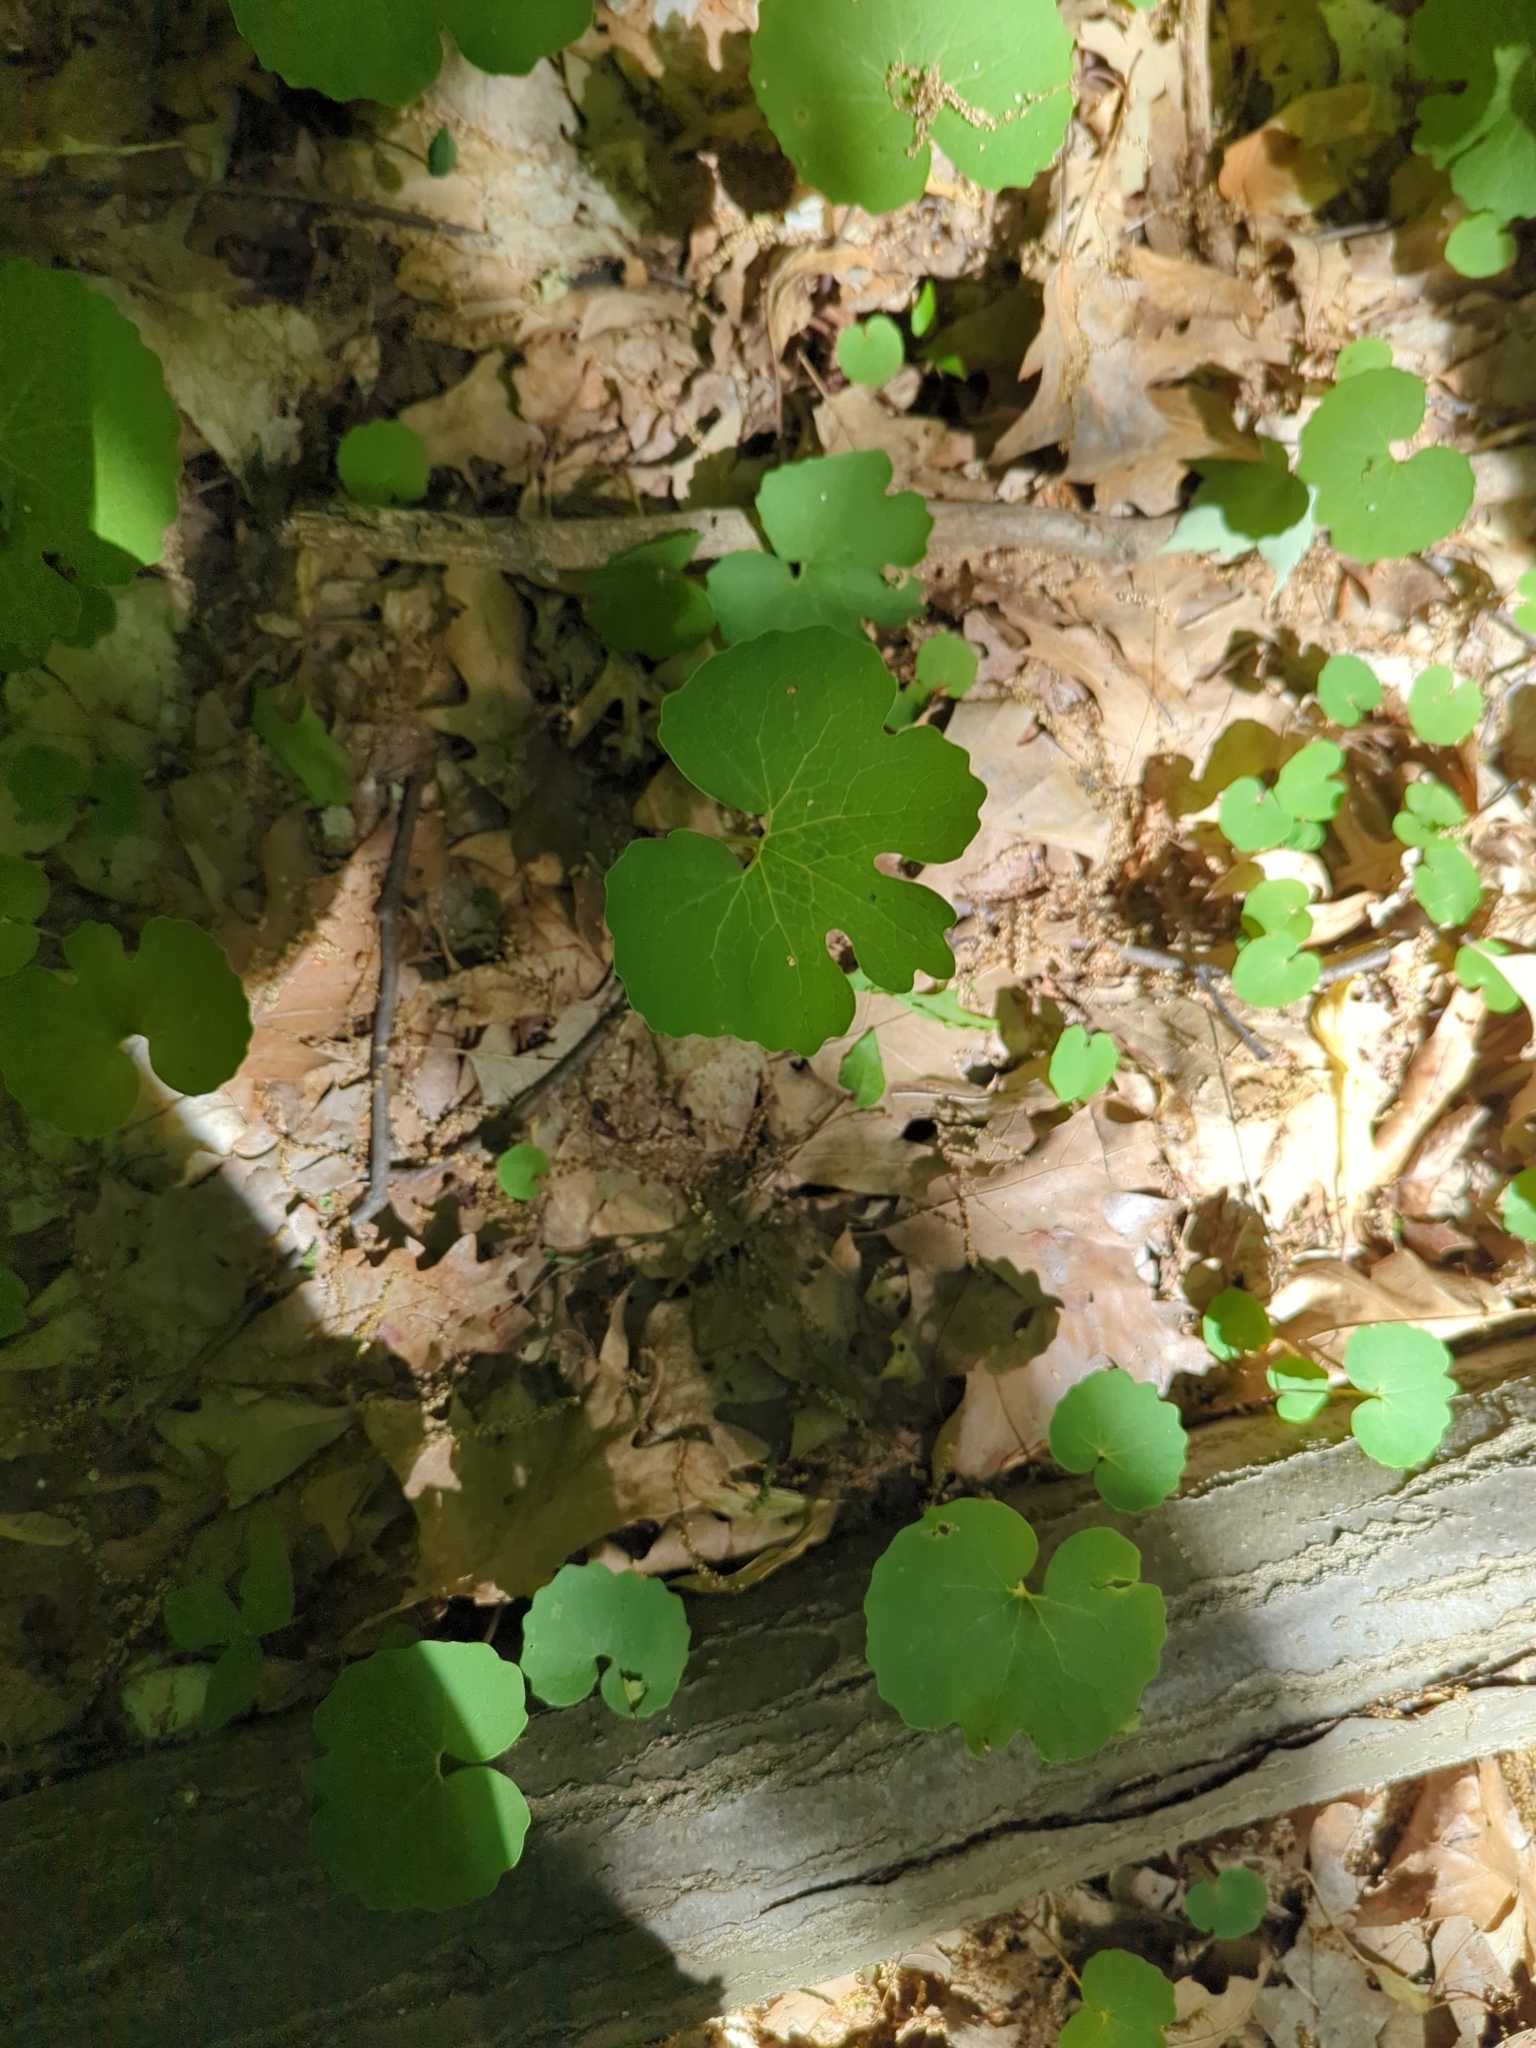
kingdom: Plantae
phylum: Tracheophyta
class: Magnoliopsida
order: Ranunculales
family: Papaveraceae
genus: Sanguinaria
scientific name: Sanguinaria canadensis
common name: Bloodroot
